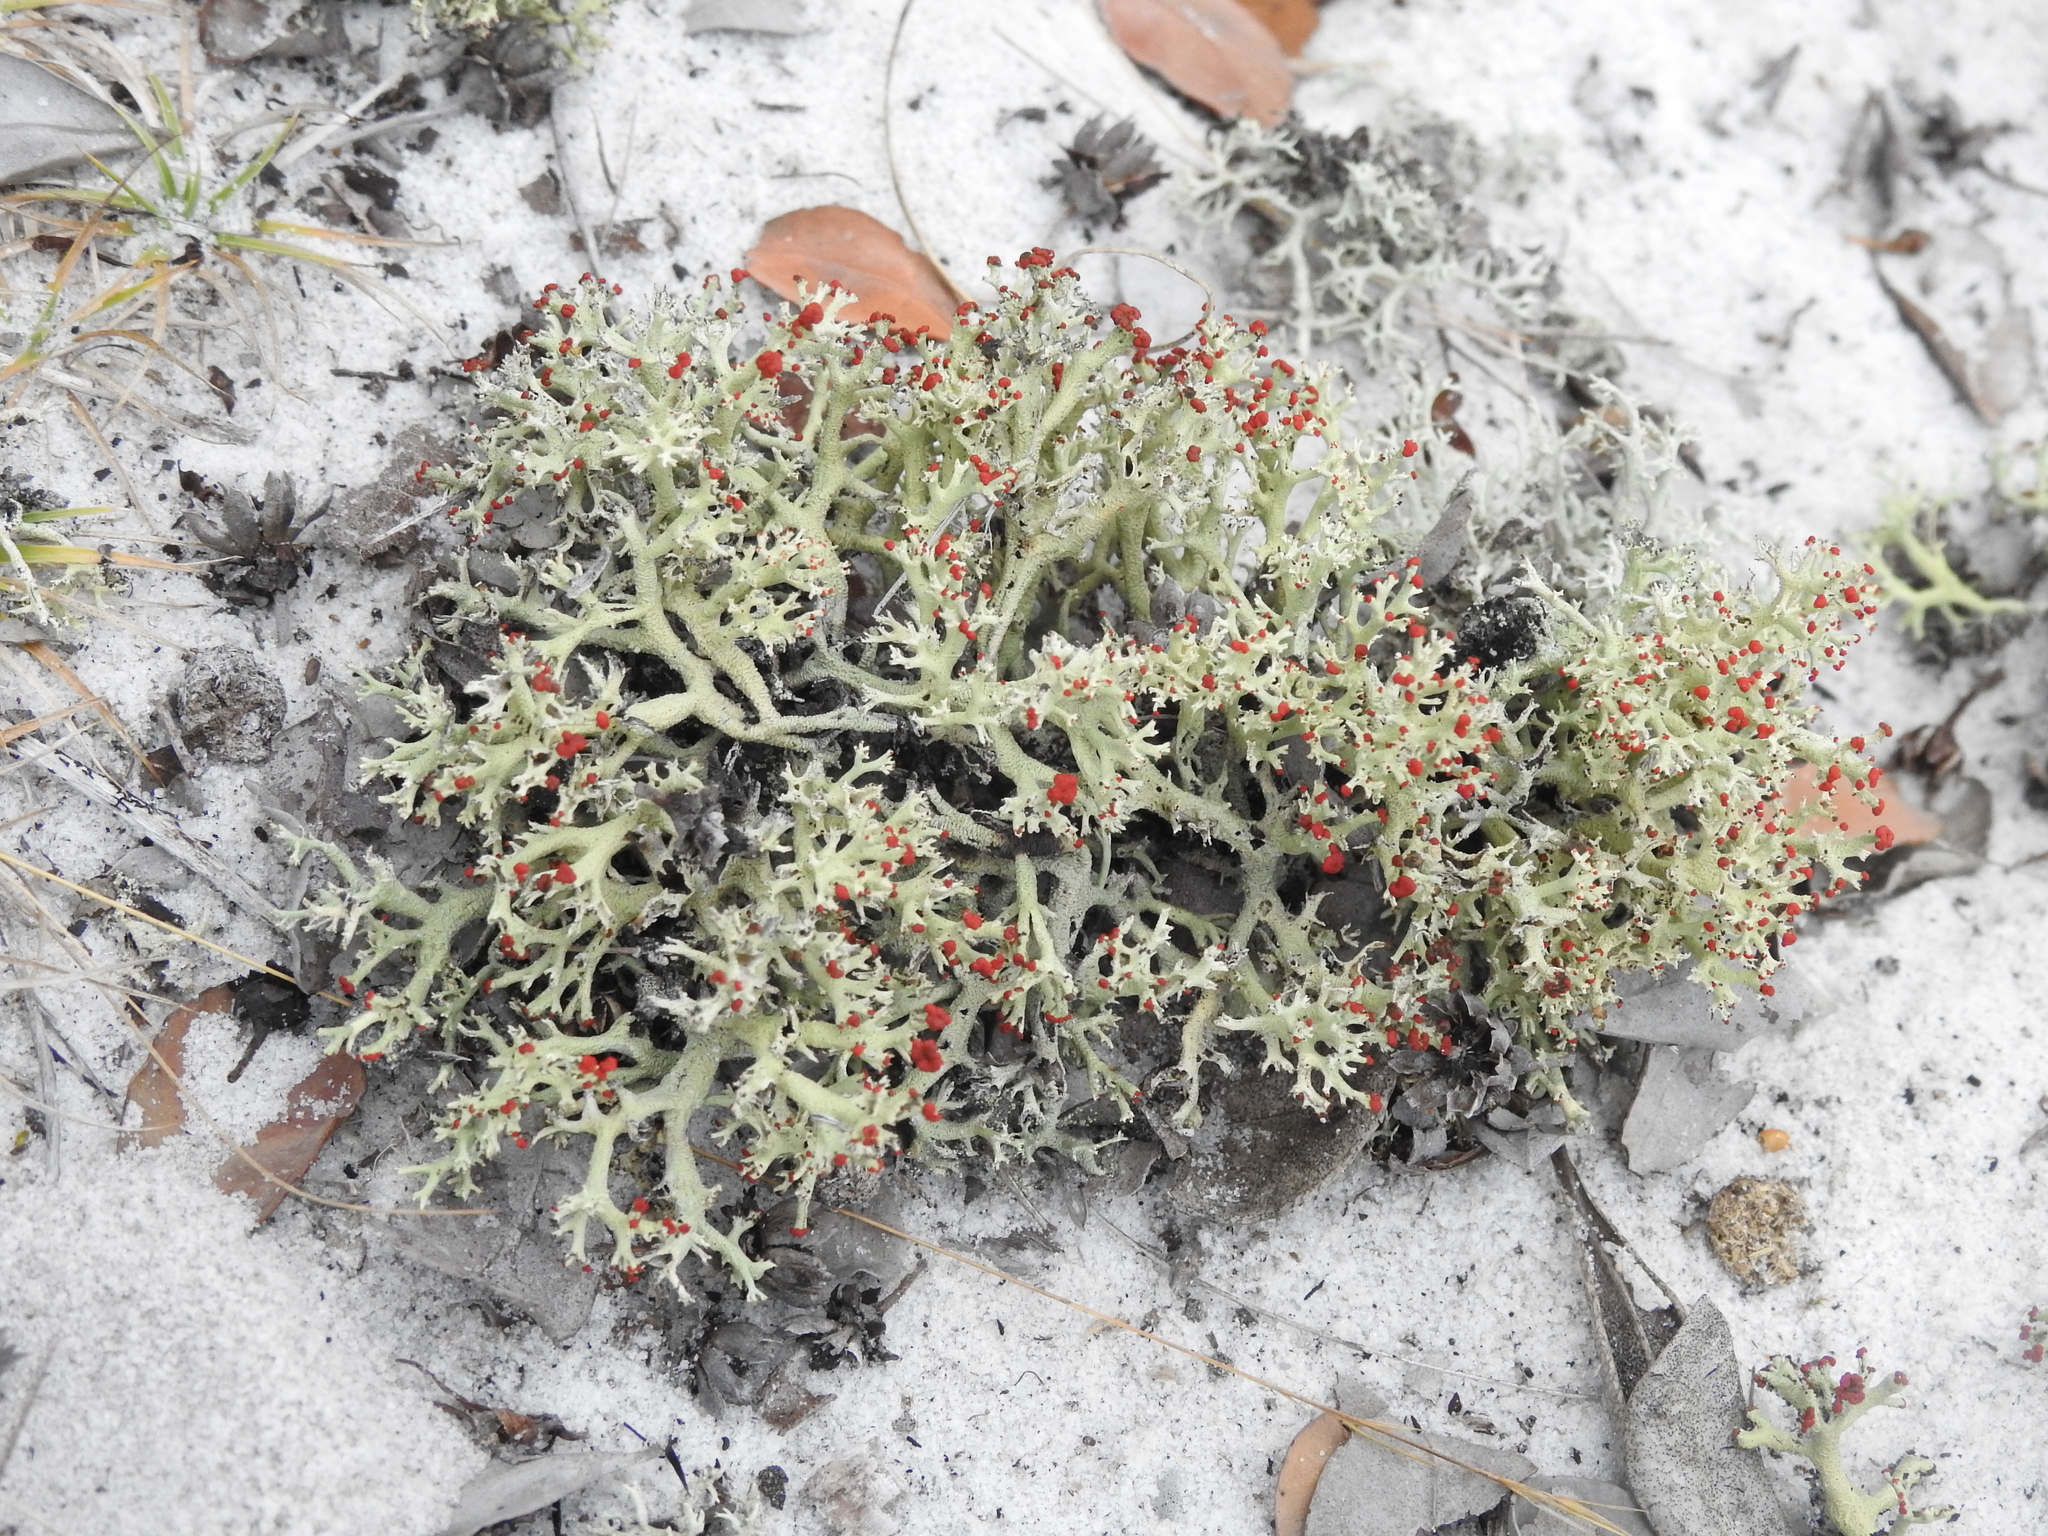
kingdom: Fungi
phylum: Ascomycota
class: Lecanoromycetes
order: Lecanorales
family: Cladoniaceae
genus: Cladonia
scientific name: Cladonia leporina
